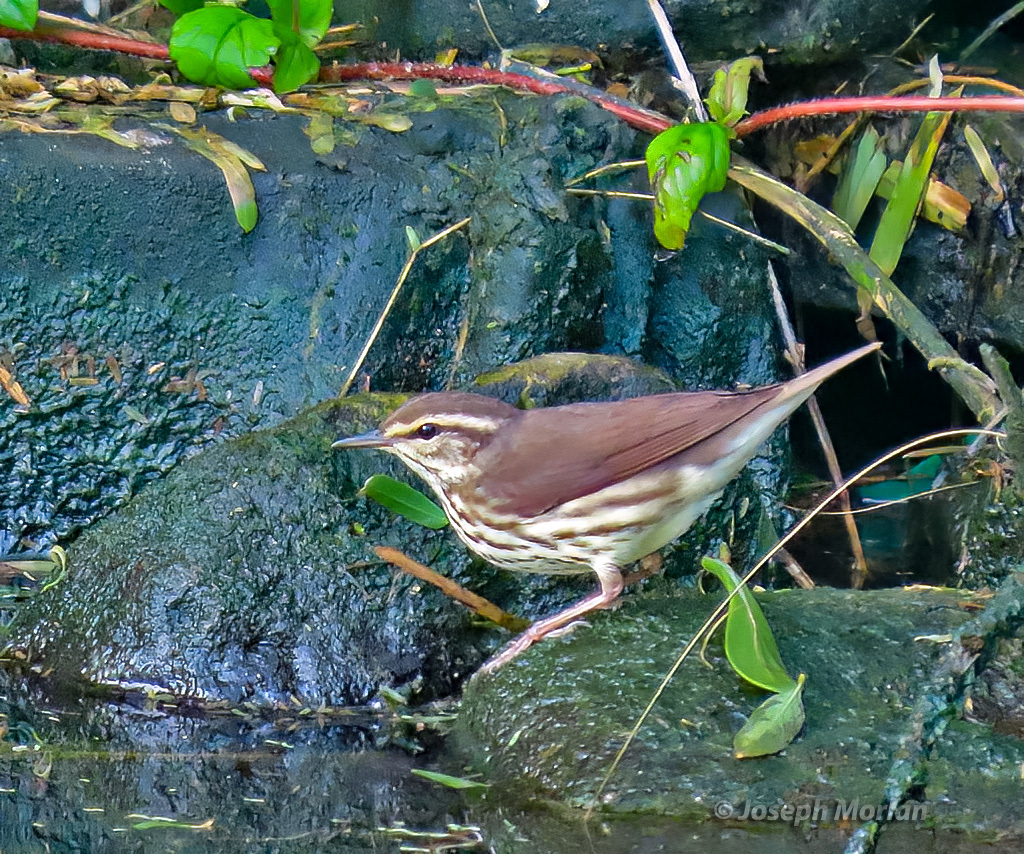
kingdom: Animalia
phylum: Chordata
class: Aves
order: Passeriformes
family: Parulidae
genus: Parkesia
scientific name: Parkesia noveboracensis
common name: Northern waterthrush
